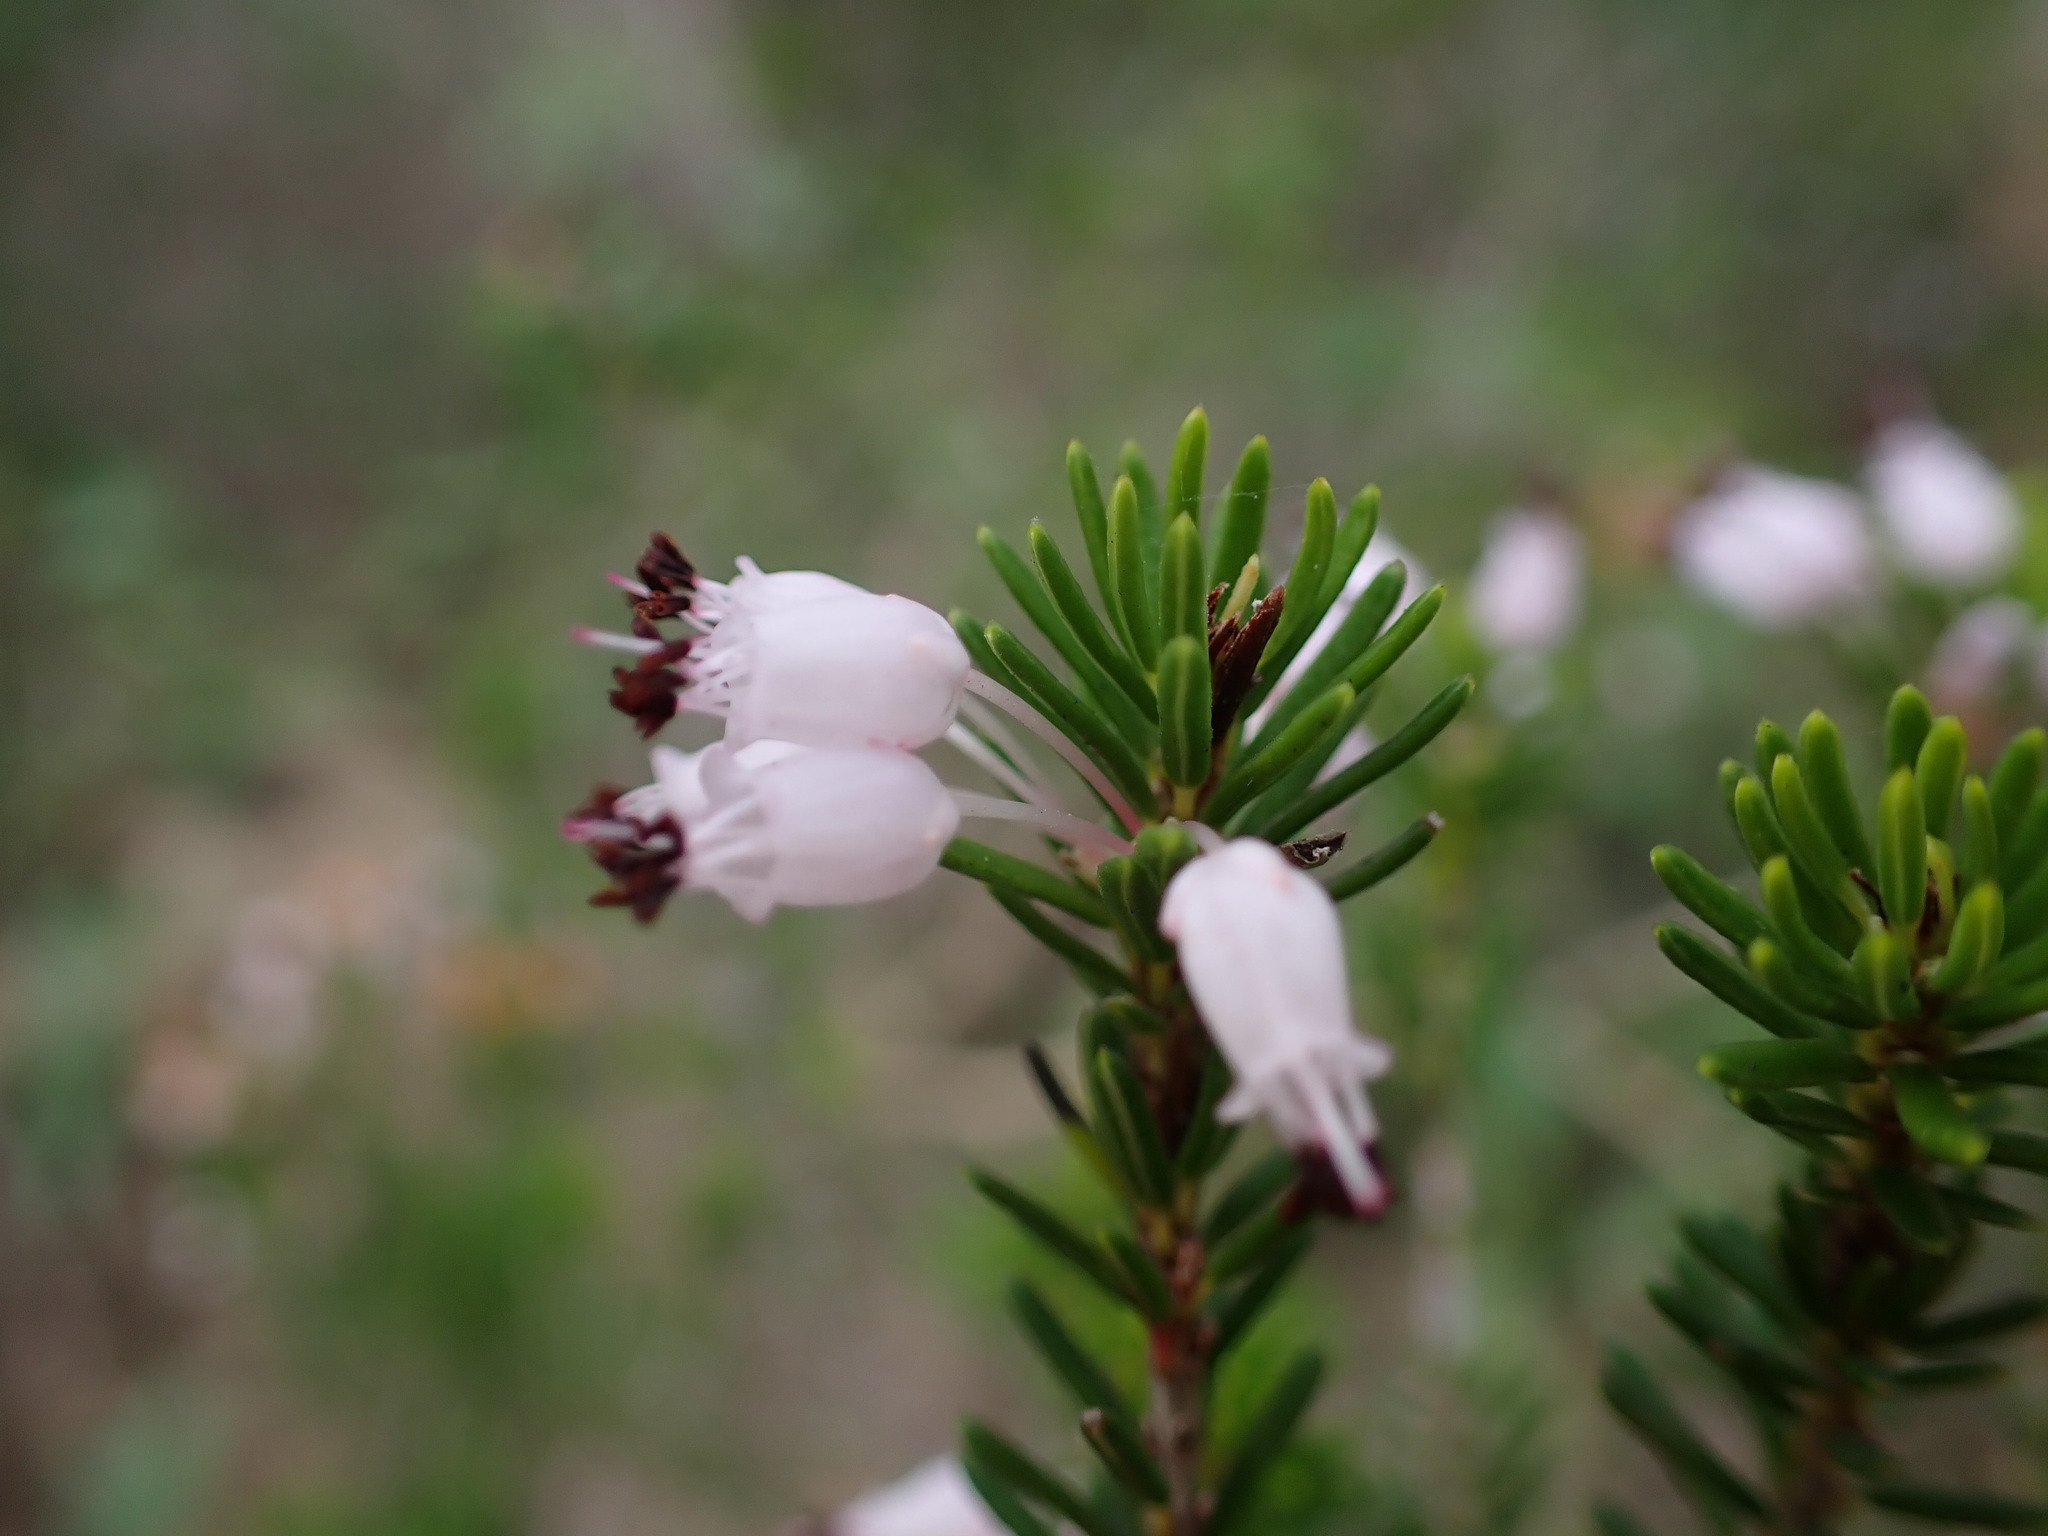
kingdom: Plantae
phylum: Tracheophyta
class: Magnoliopsida
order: Ericales
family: Ericaceae
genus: Erica
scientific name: Erica multiflora
